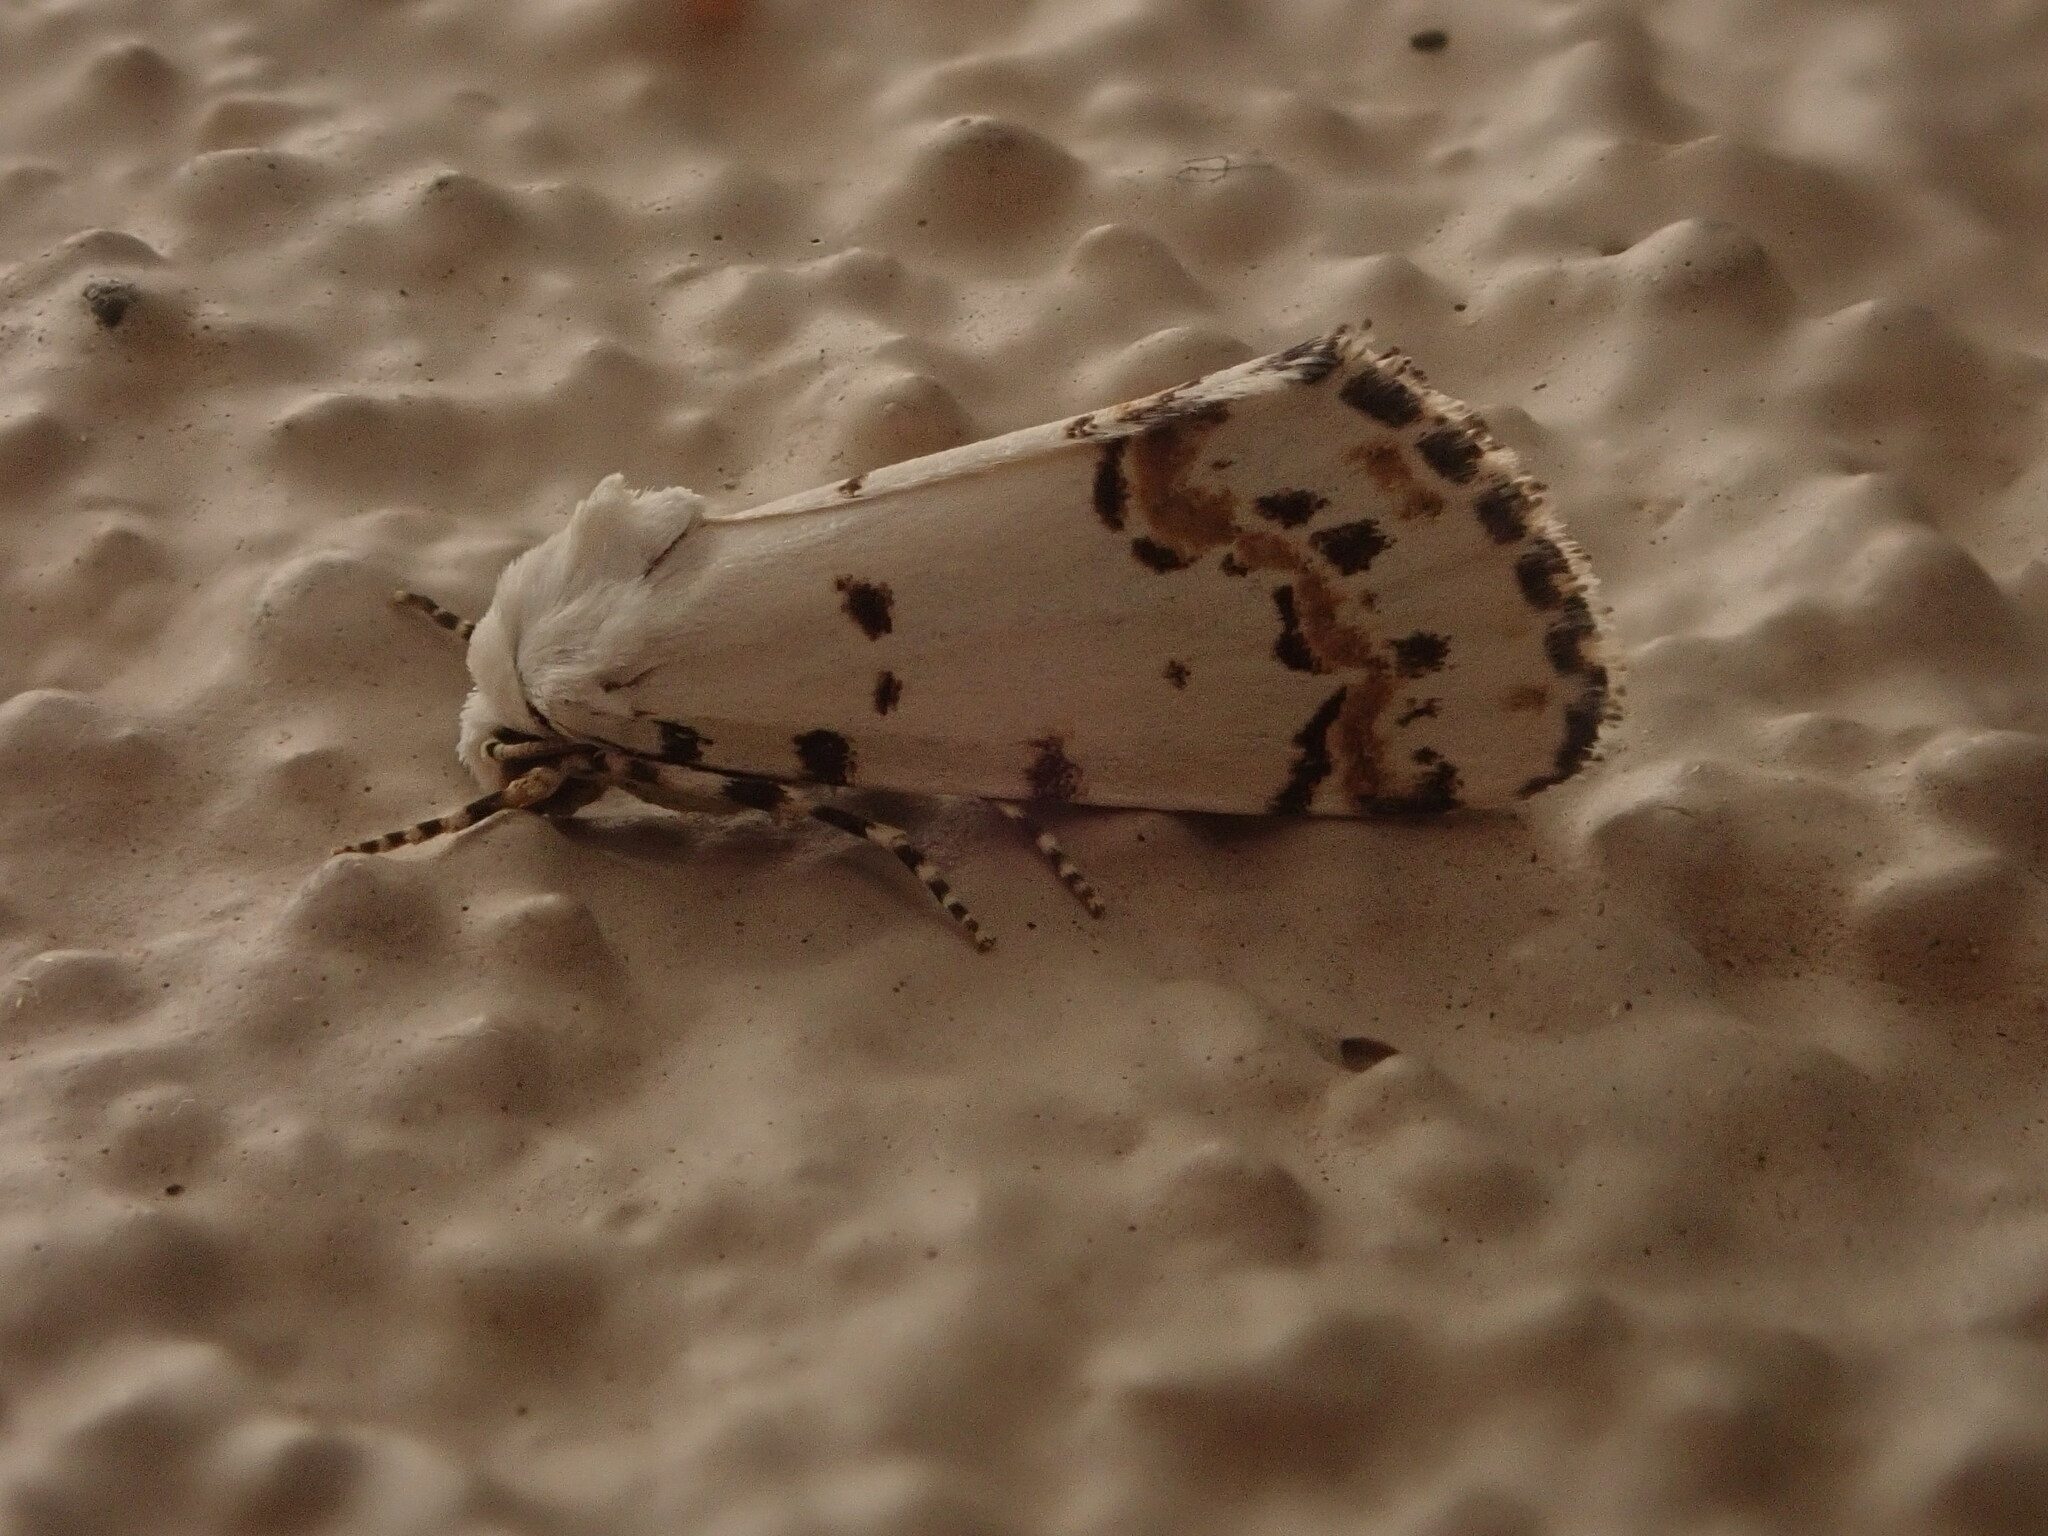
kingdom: Animalia
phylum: Arthropoda
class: Insecta
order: Lepidoptera
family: Noctuidae
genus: Grotella
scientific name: Grotella tricolor
